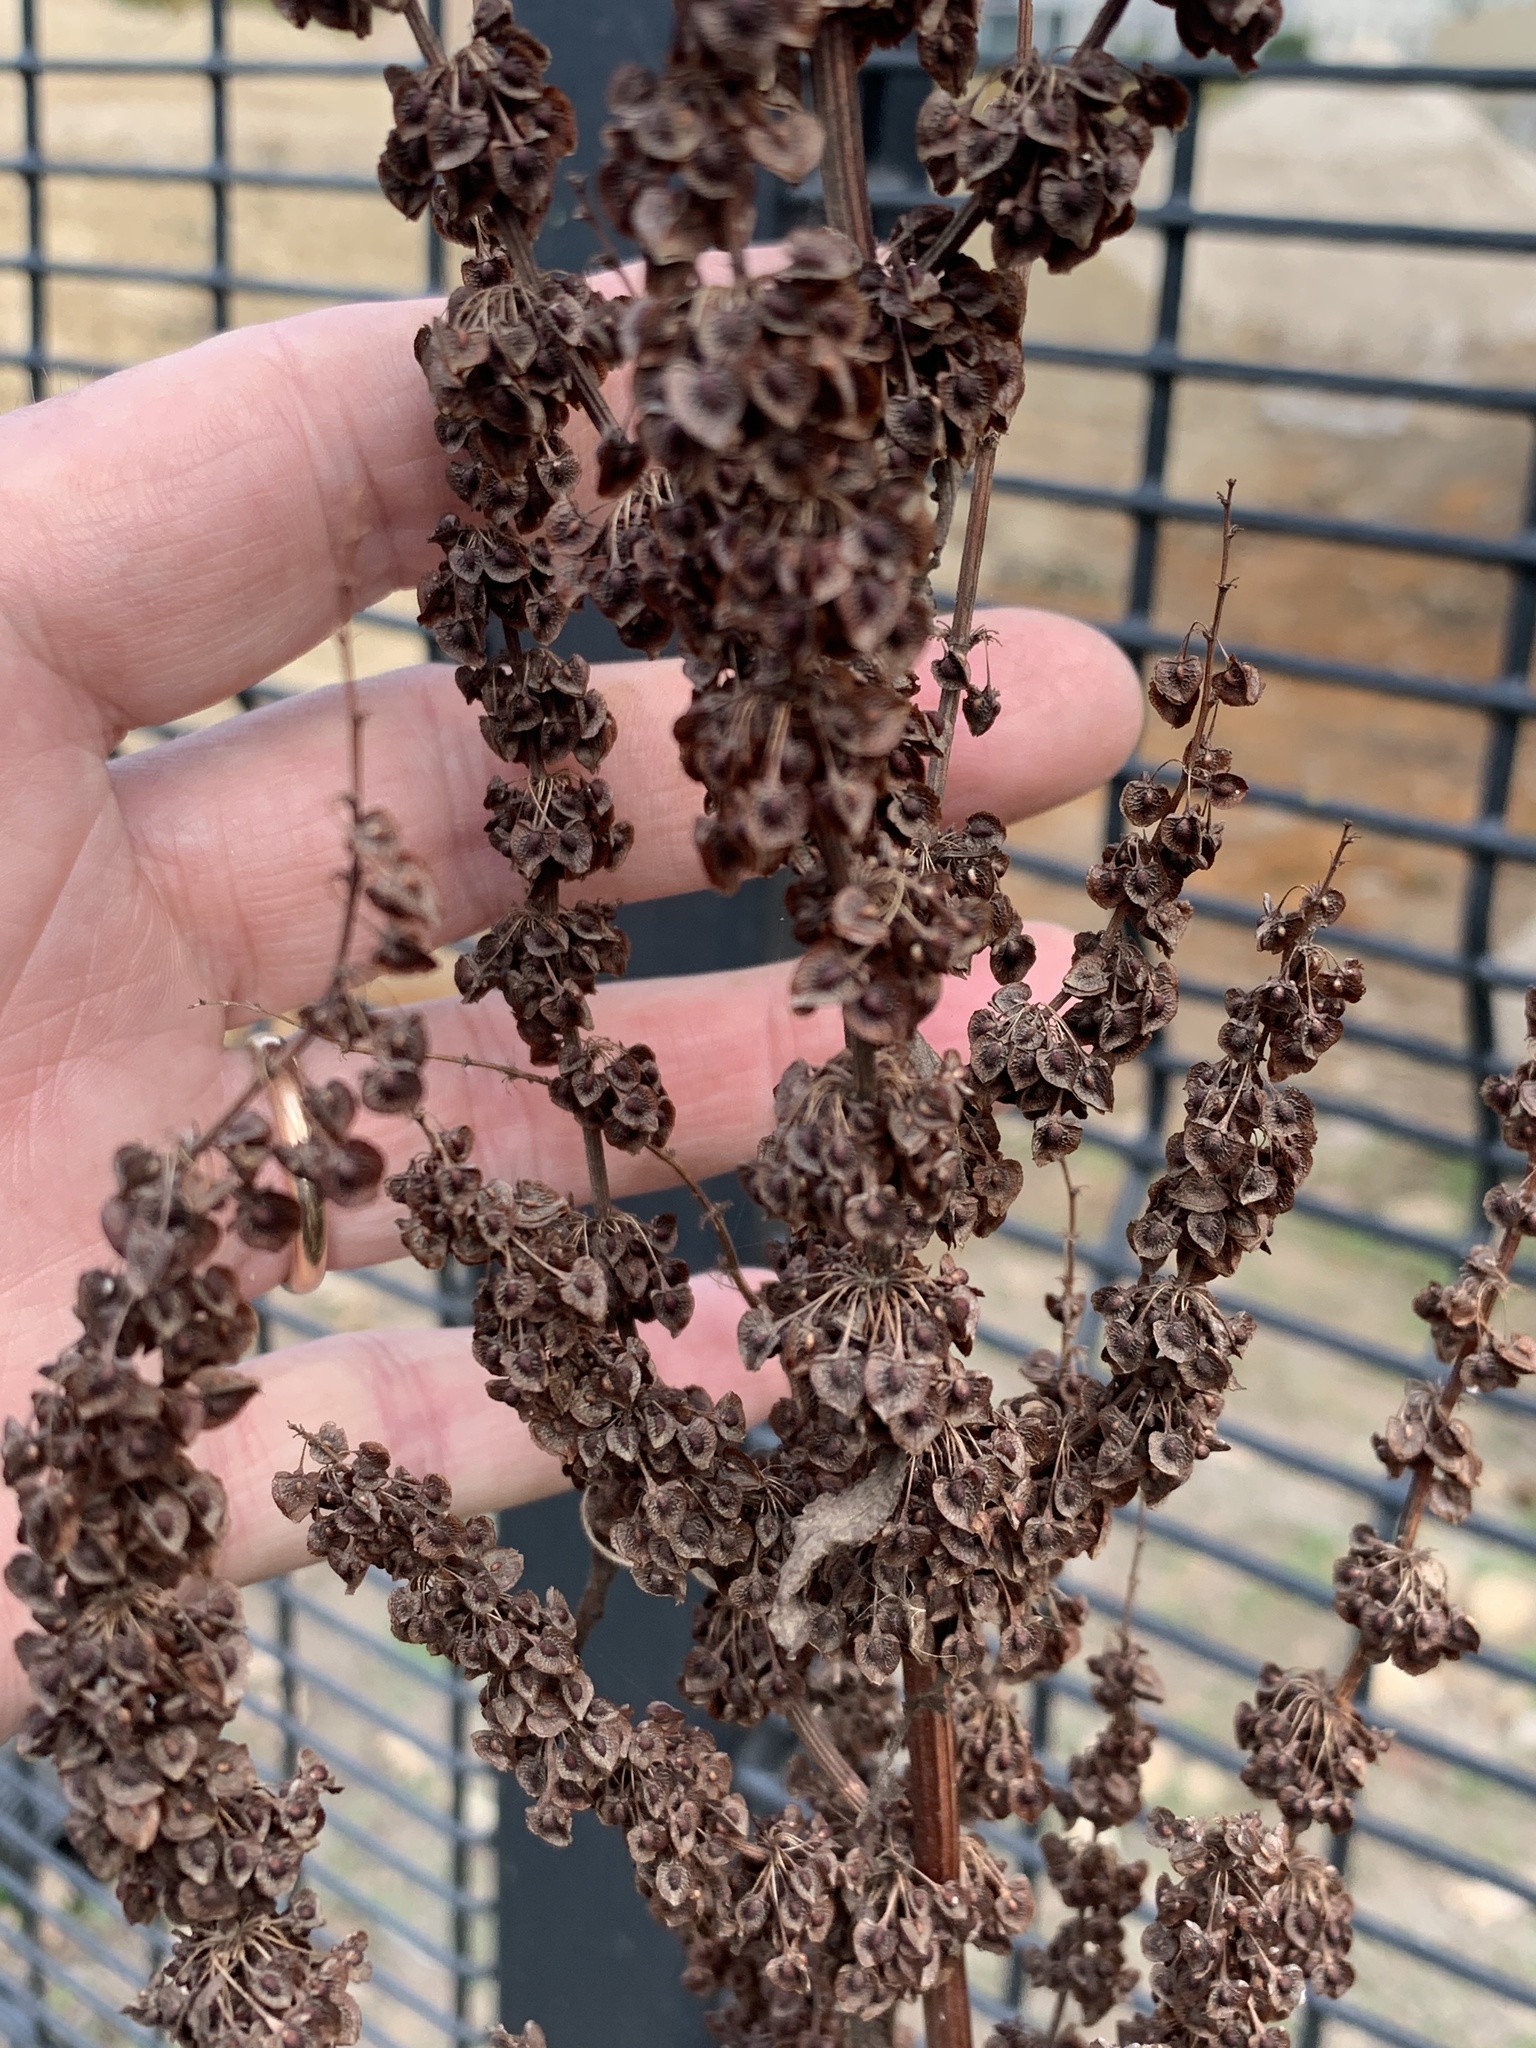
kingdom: Plantae
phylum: Tracheophyta
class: Magnoliopsida
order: Caryophyllales
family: Polygonaceae
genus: Rumex
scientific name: Rumex crispus
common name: Curled dock
